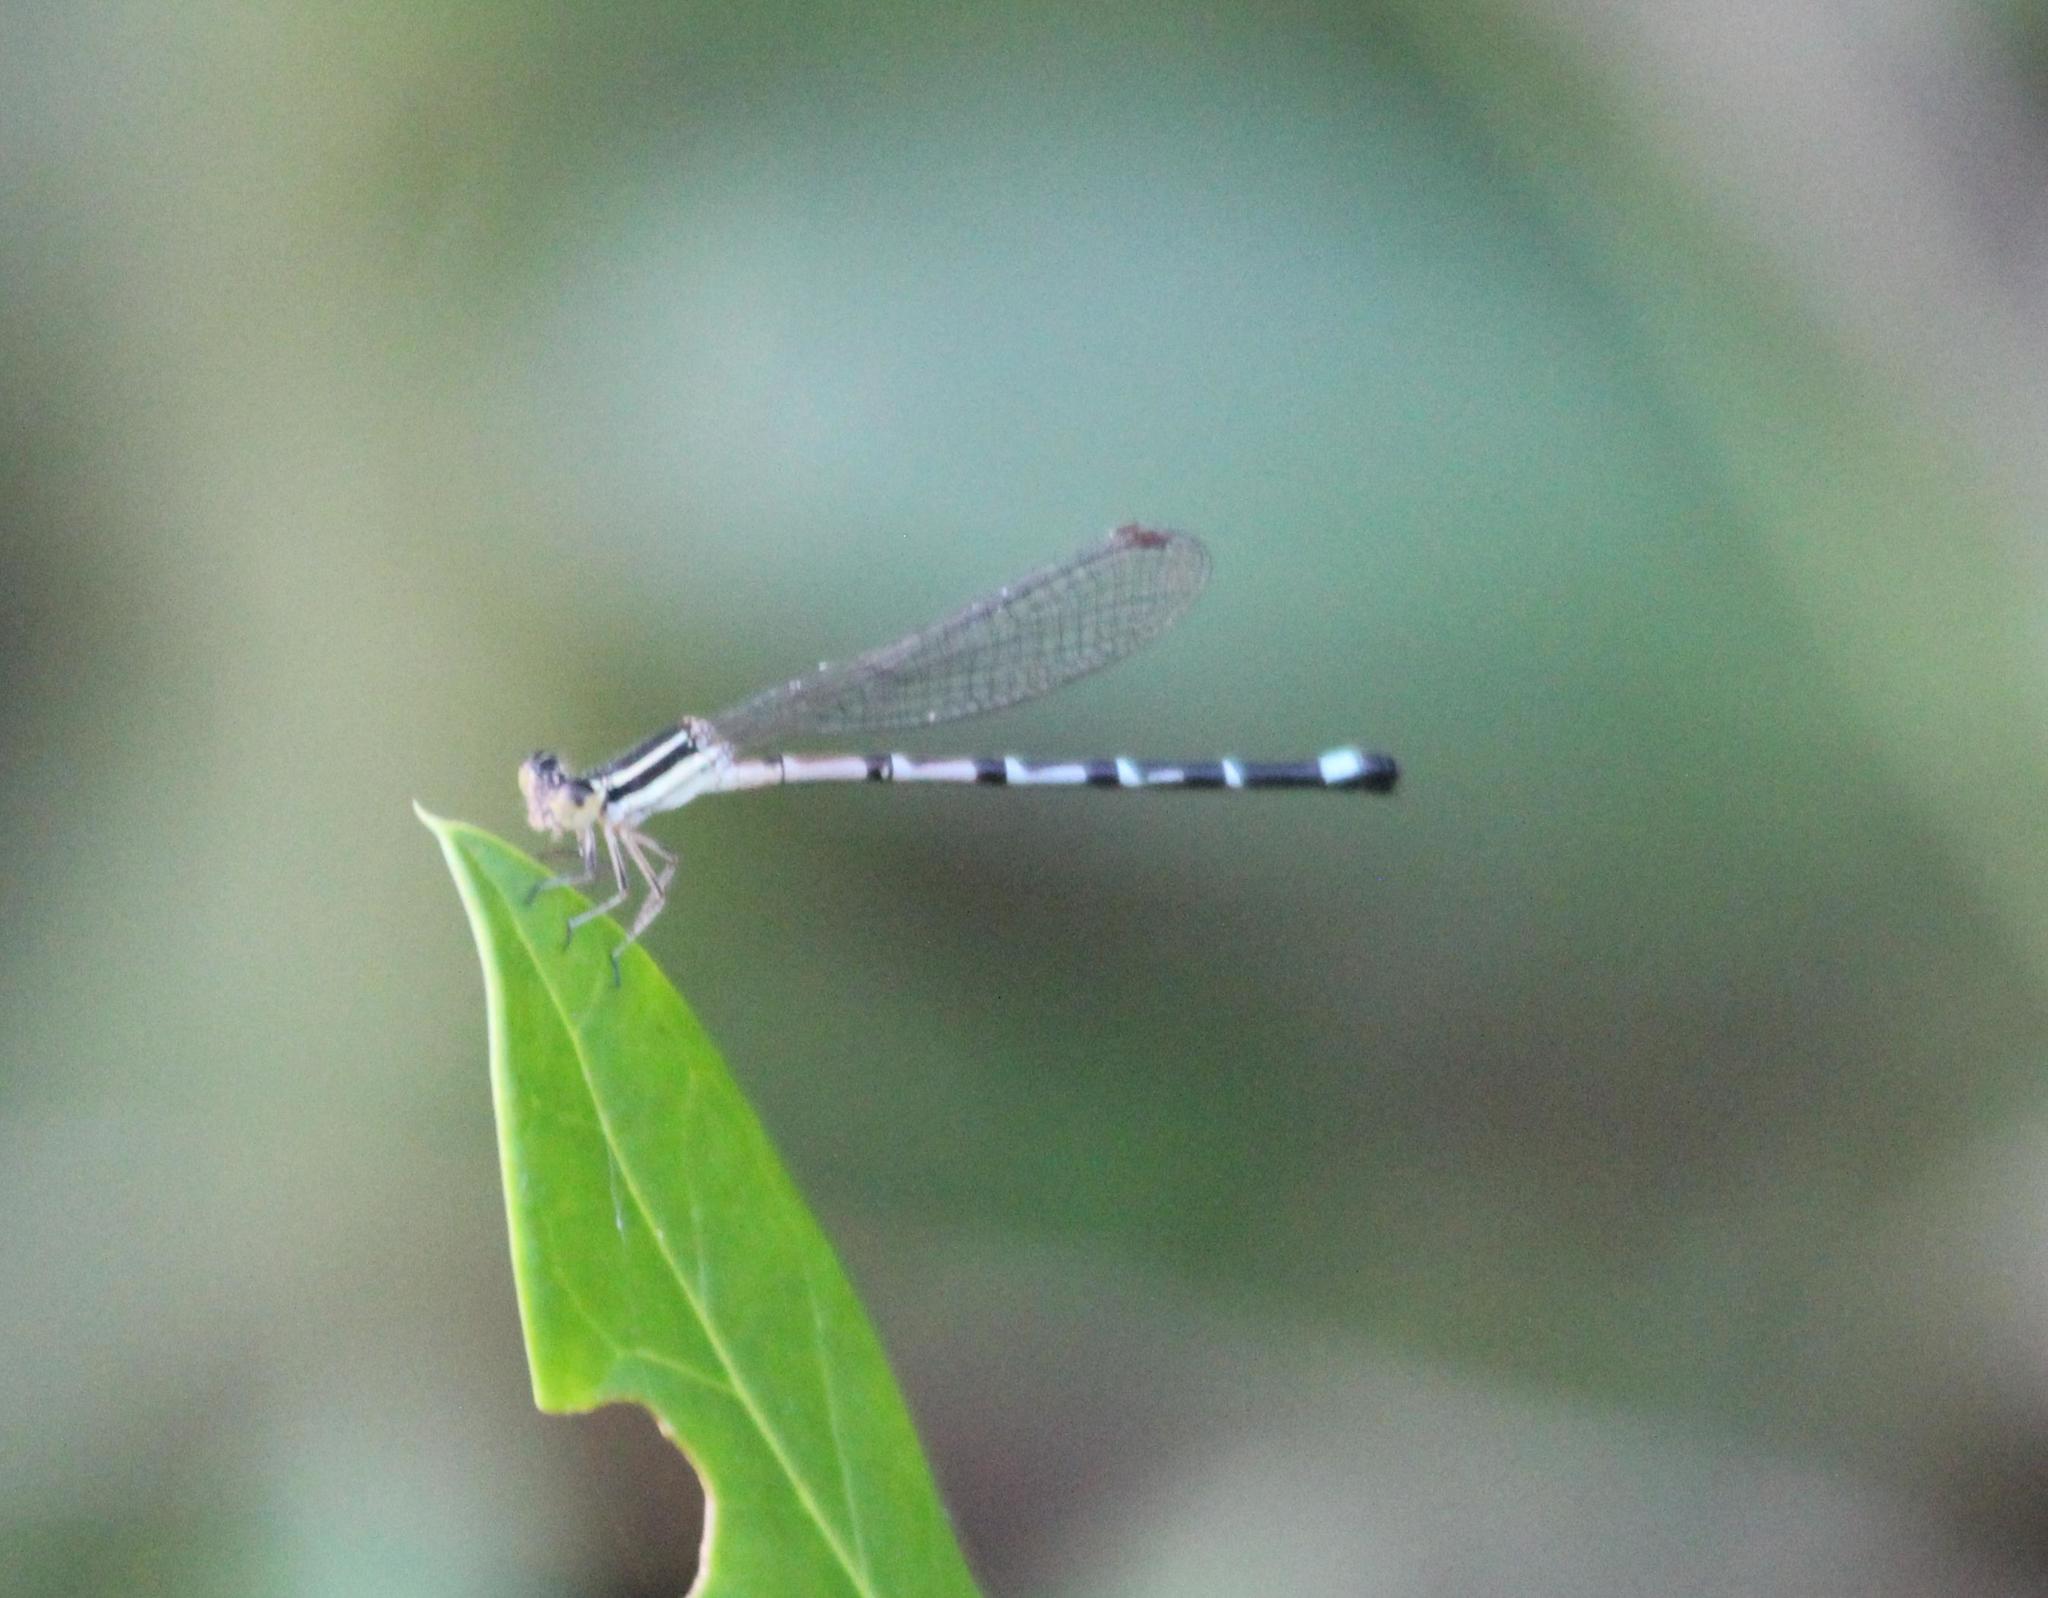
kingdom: Animalia
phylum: Arthropoda
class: Insecta
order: Odonata
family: Coenagrionidae
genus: Argia
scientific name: Argia bipunctulata
